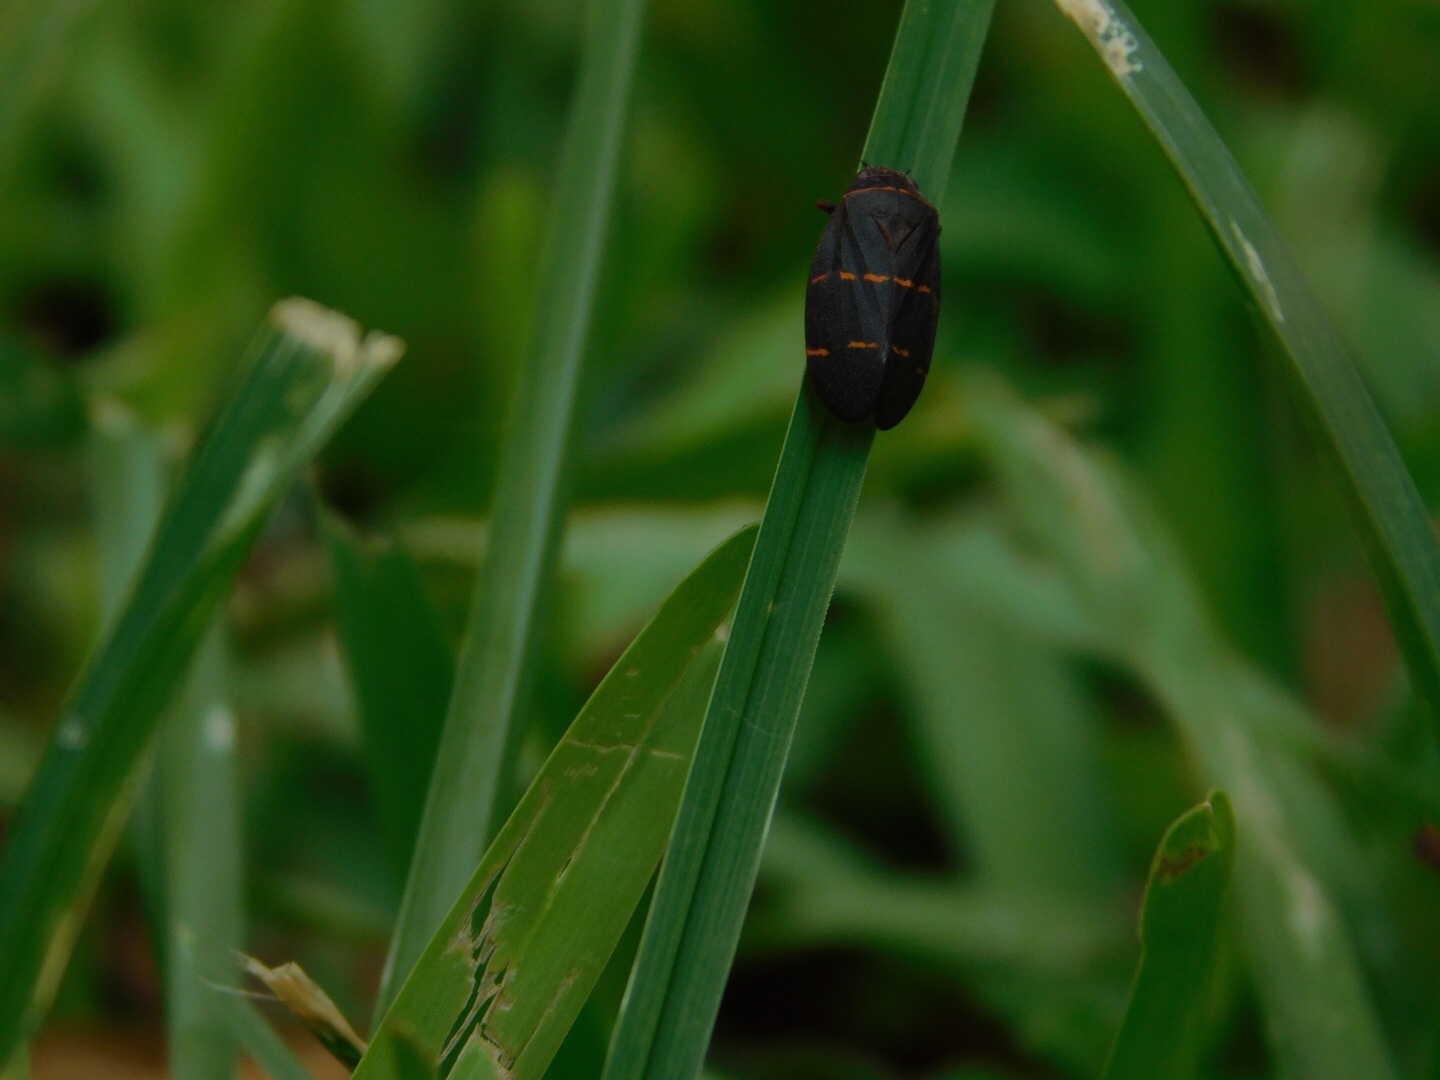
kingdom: Animalia
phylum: Arthropoda
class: Insecta
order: Hemiptera
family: Cercopidae
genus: Prosapia
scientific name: Prosapia bicincta
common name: Twolined spittlebug
